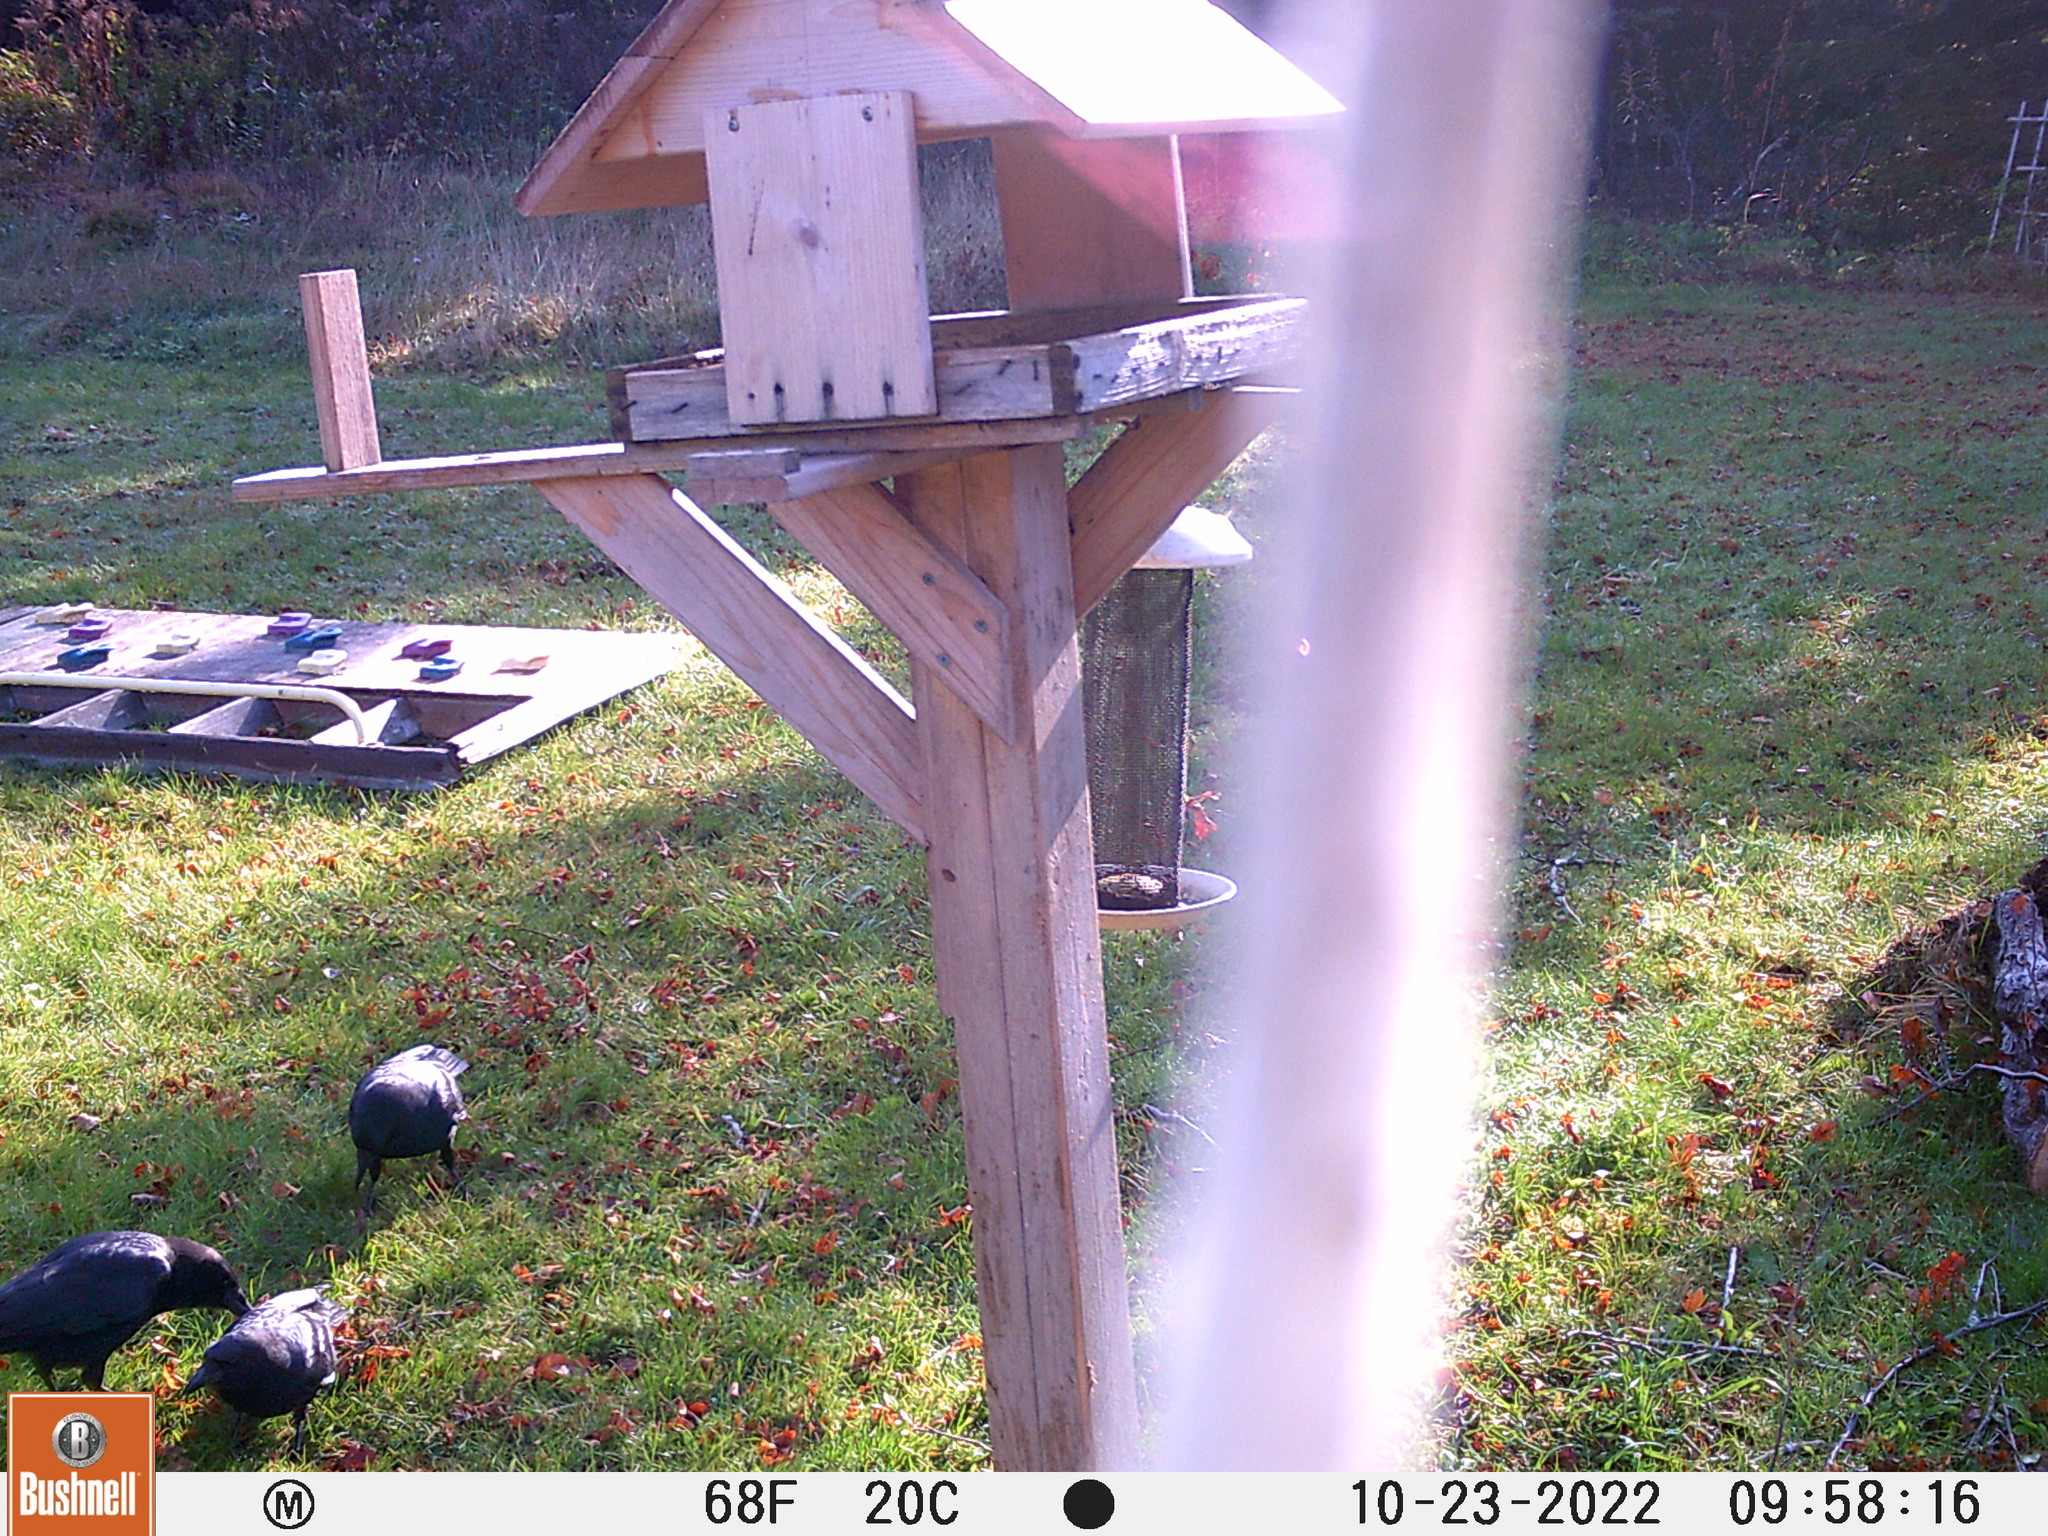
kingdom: Animalia
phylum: Chordata
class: Aves
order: Passeriformes
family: Corvidae
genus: Corvus
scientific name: Corvus brachyrhynchos
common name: American crow
